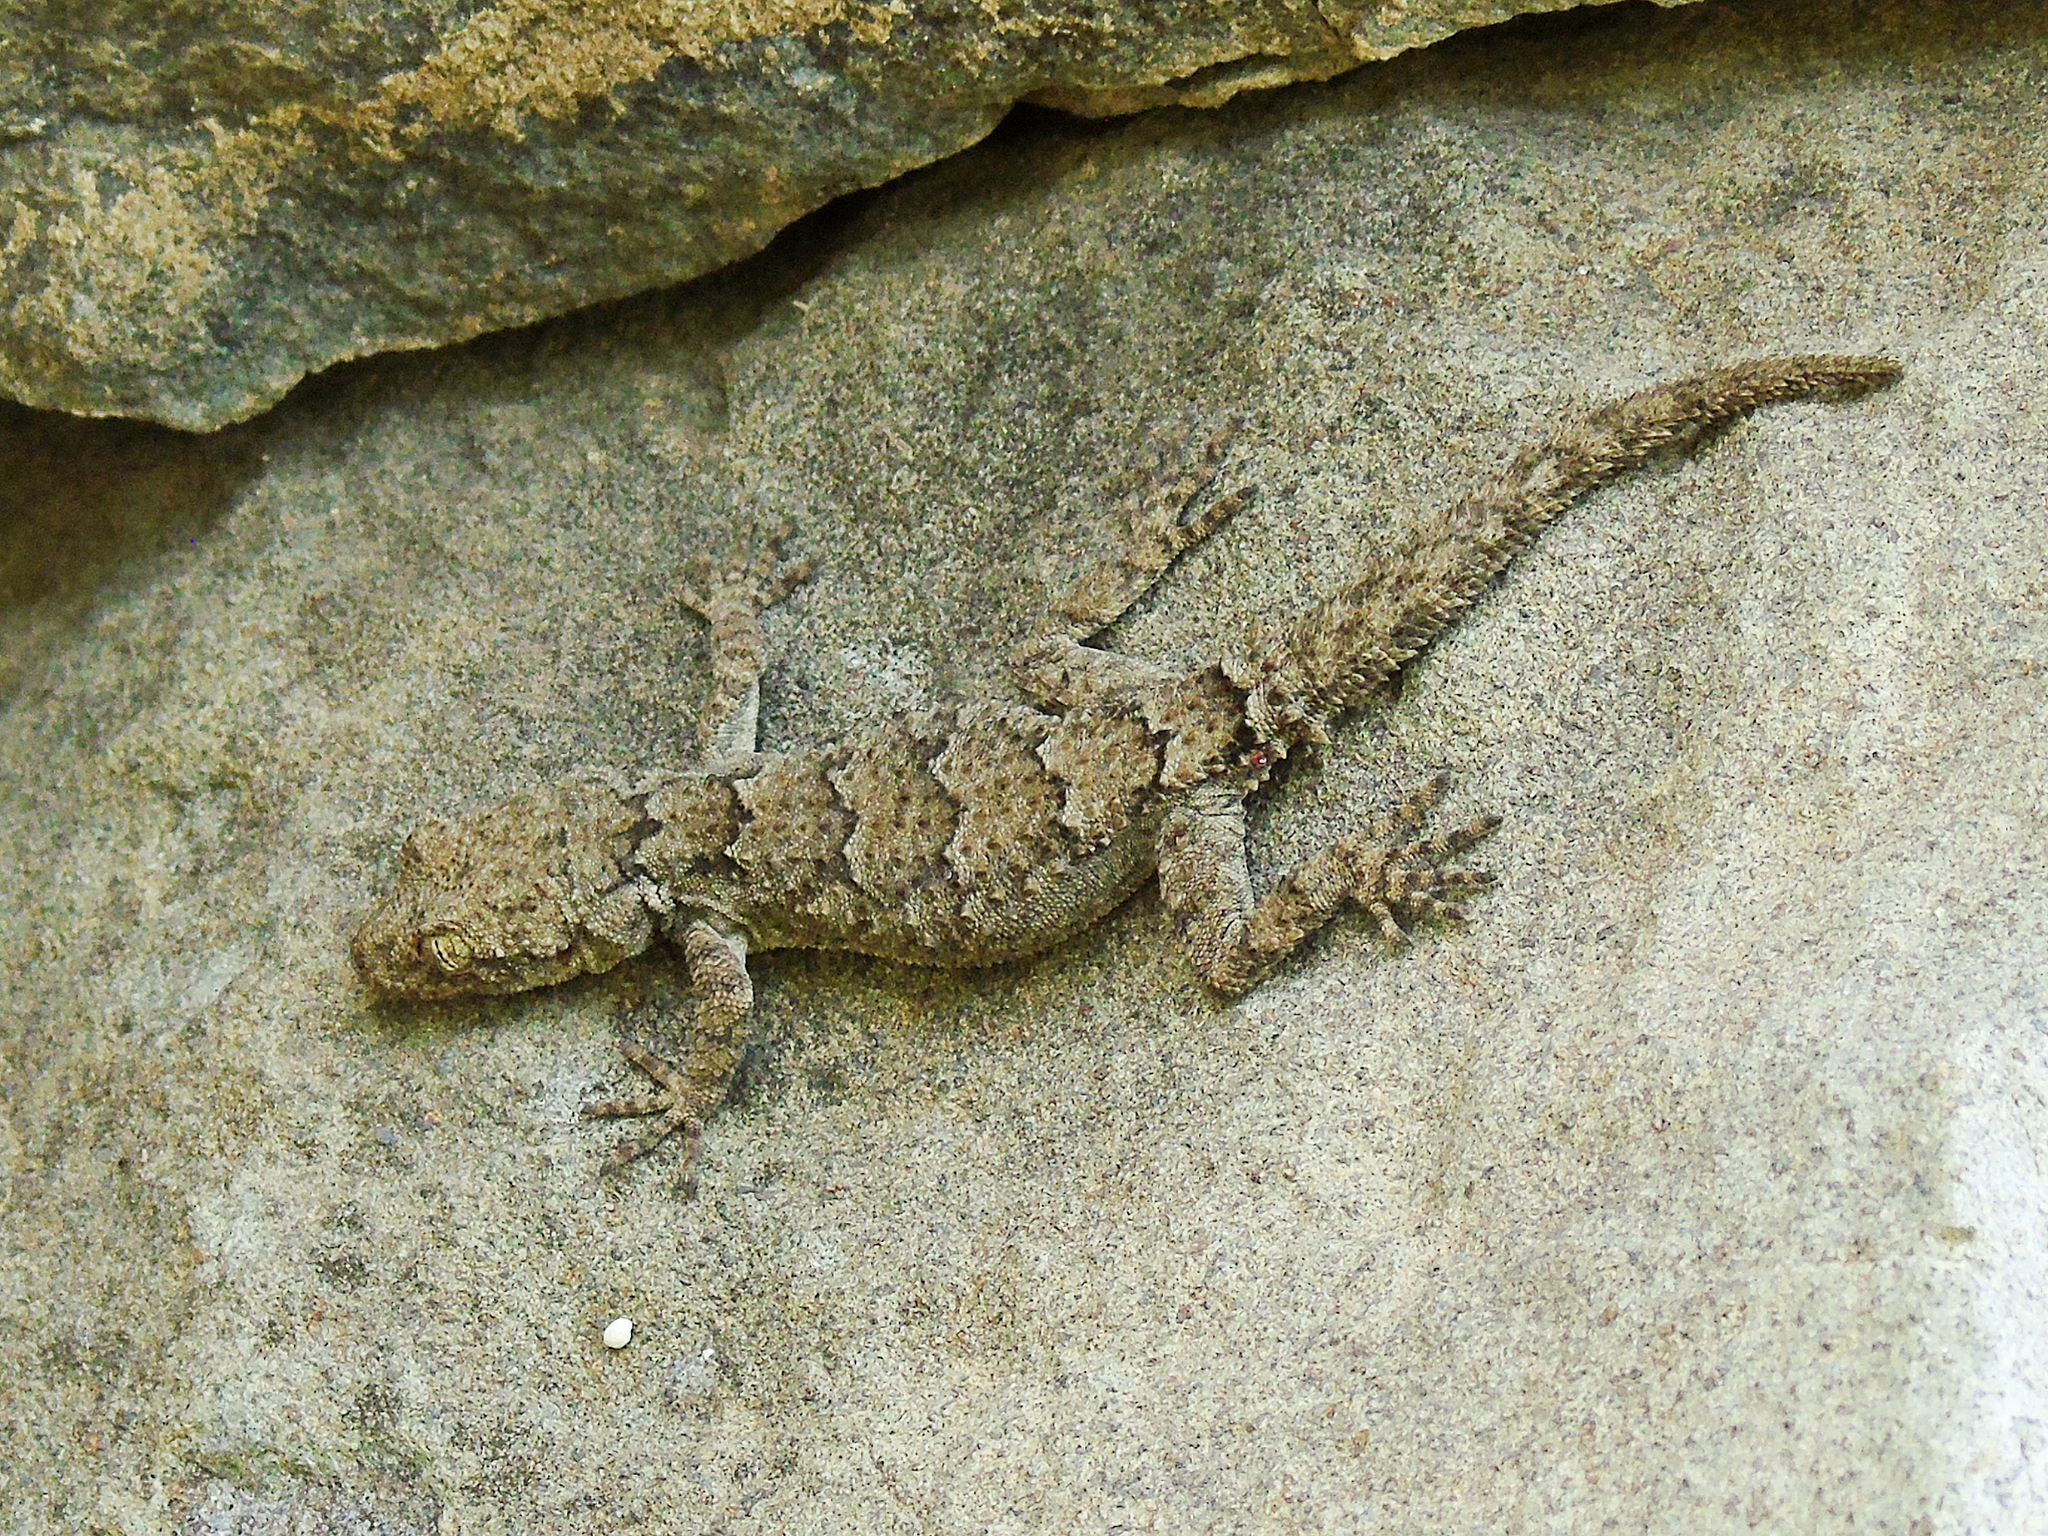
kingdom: Animalia
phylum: Chordata
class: Squamata
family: Gekkonidae
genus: Mediodactylus
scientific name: Mediodactylus heterocercus
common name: Asia minor thin-toed gecko
